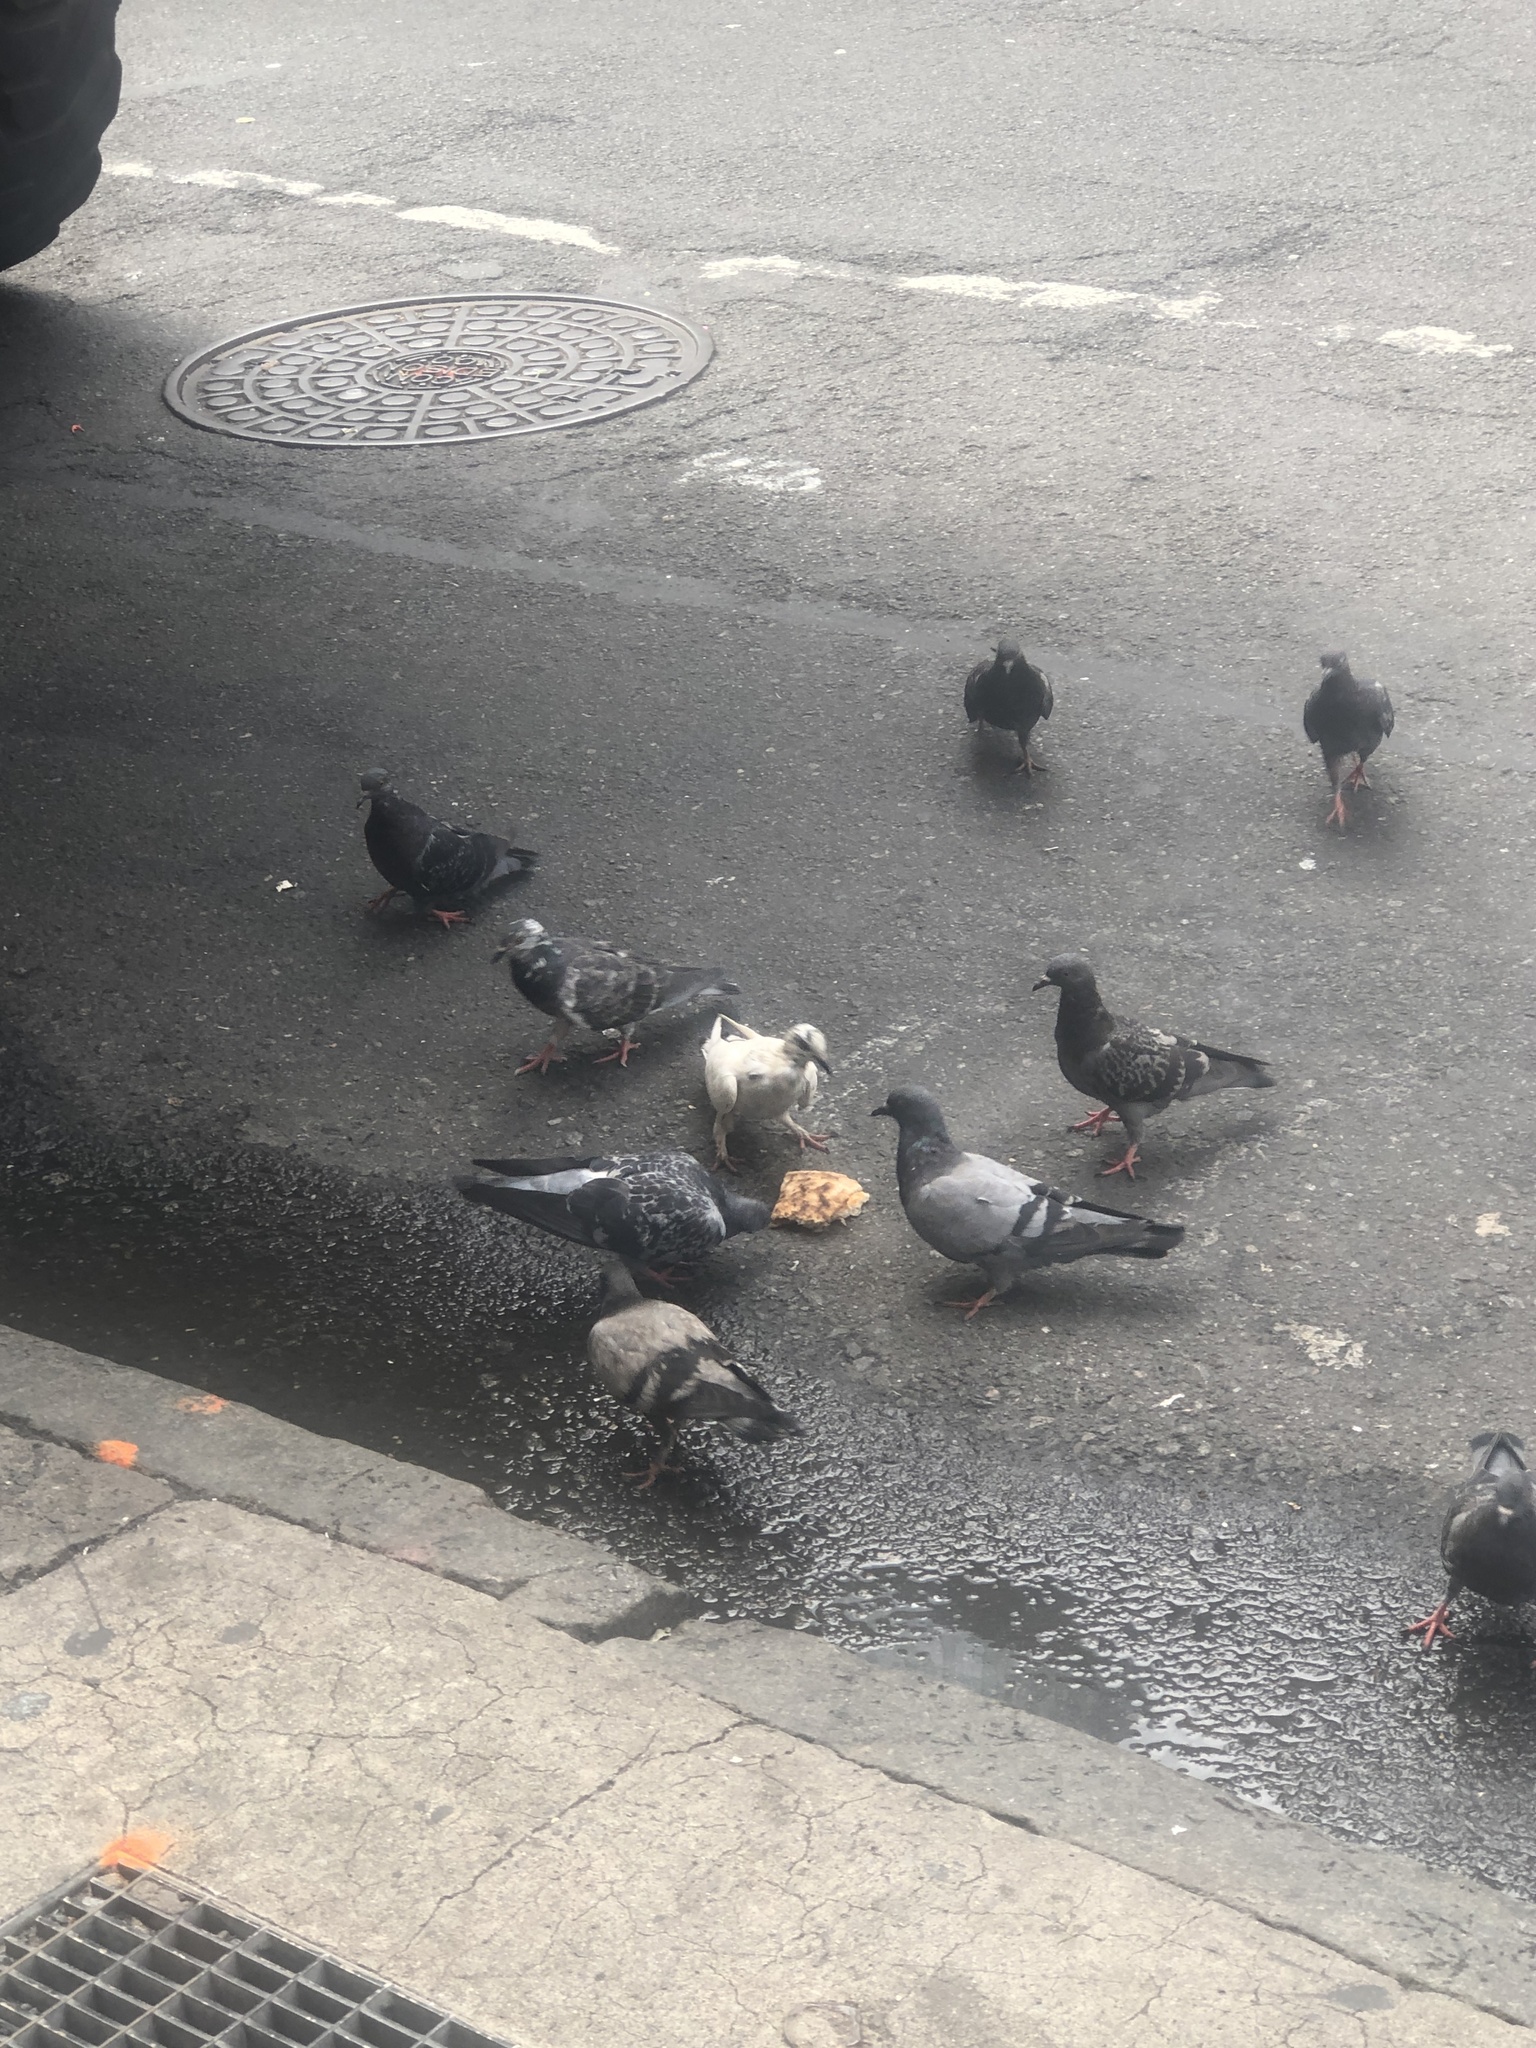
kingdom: Animalia
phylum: Chordata
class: Aves
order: Columbiformes
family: Columbidae
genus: Columba
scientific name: Columba livia
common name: Rock pigeon
